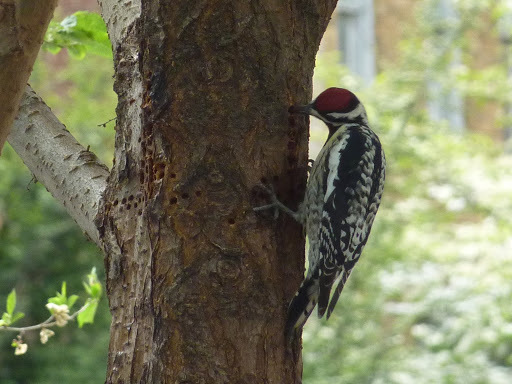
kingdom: Animalia
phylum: Chordata
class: Aves
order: Piciformes
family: Picidae
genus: Sphyrapicus
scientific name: Sphyrapicus varius
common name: Yellow-bellied sapsucker
